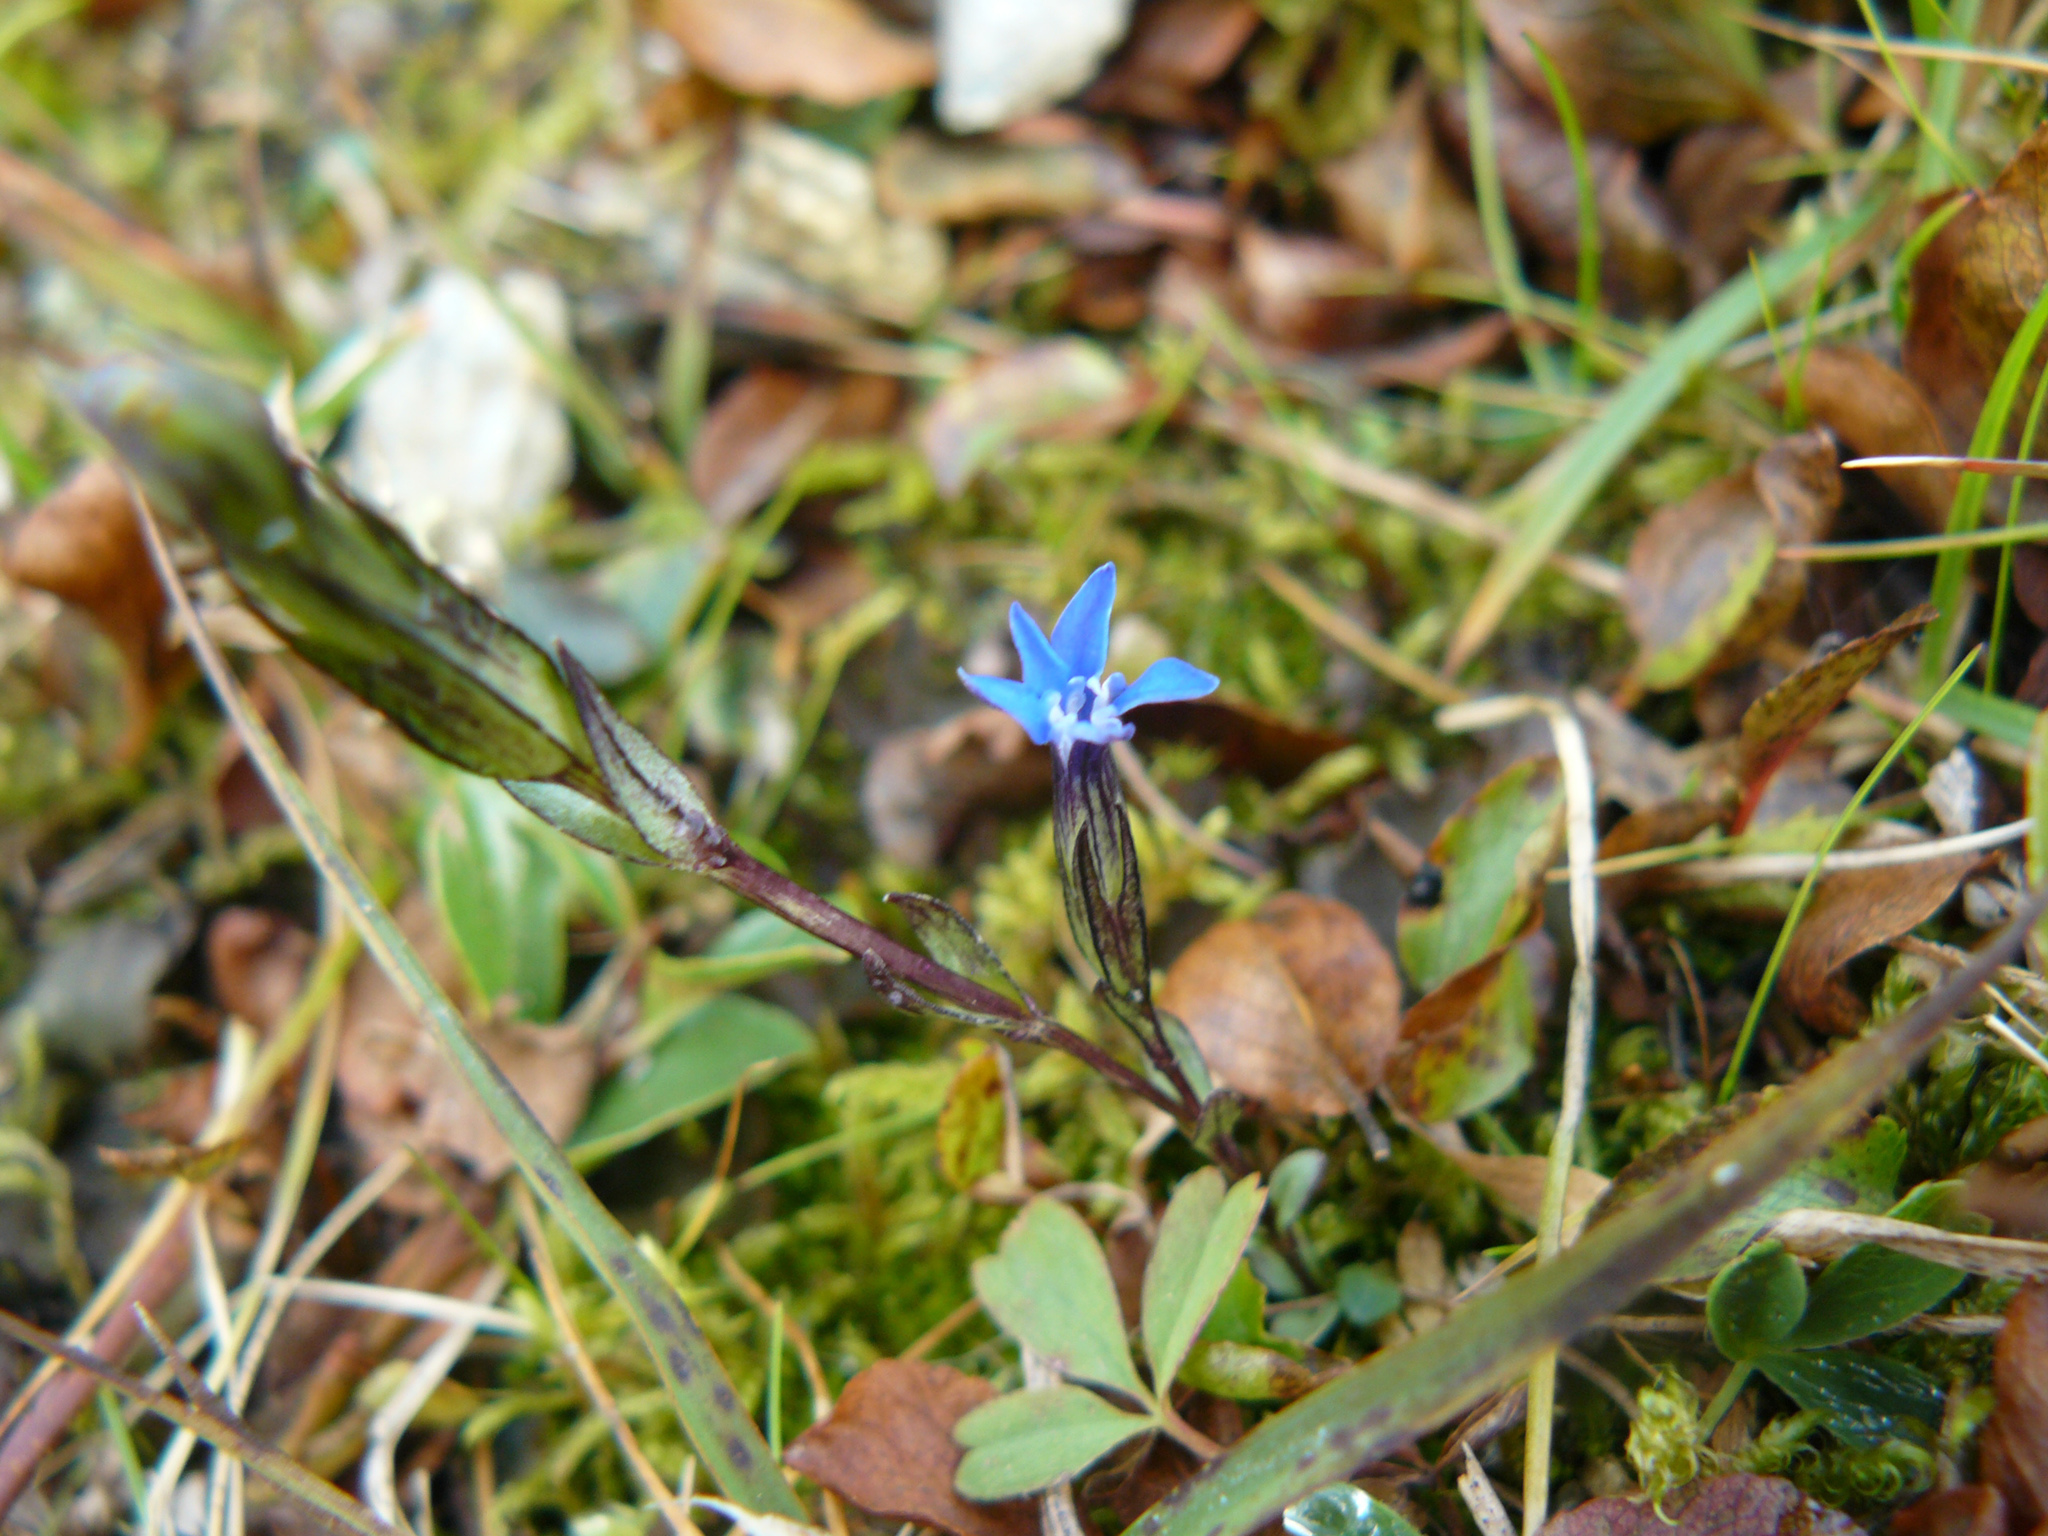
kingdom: Plantae
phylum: Tracheophyta
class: Magnoliopsida
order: Gentianales
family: Gentianaceae
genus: Gentiana
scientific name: Gentiana nivalis
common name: Alpine gentian
